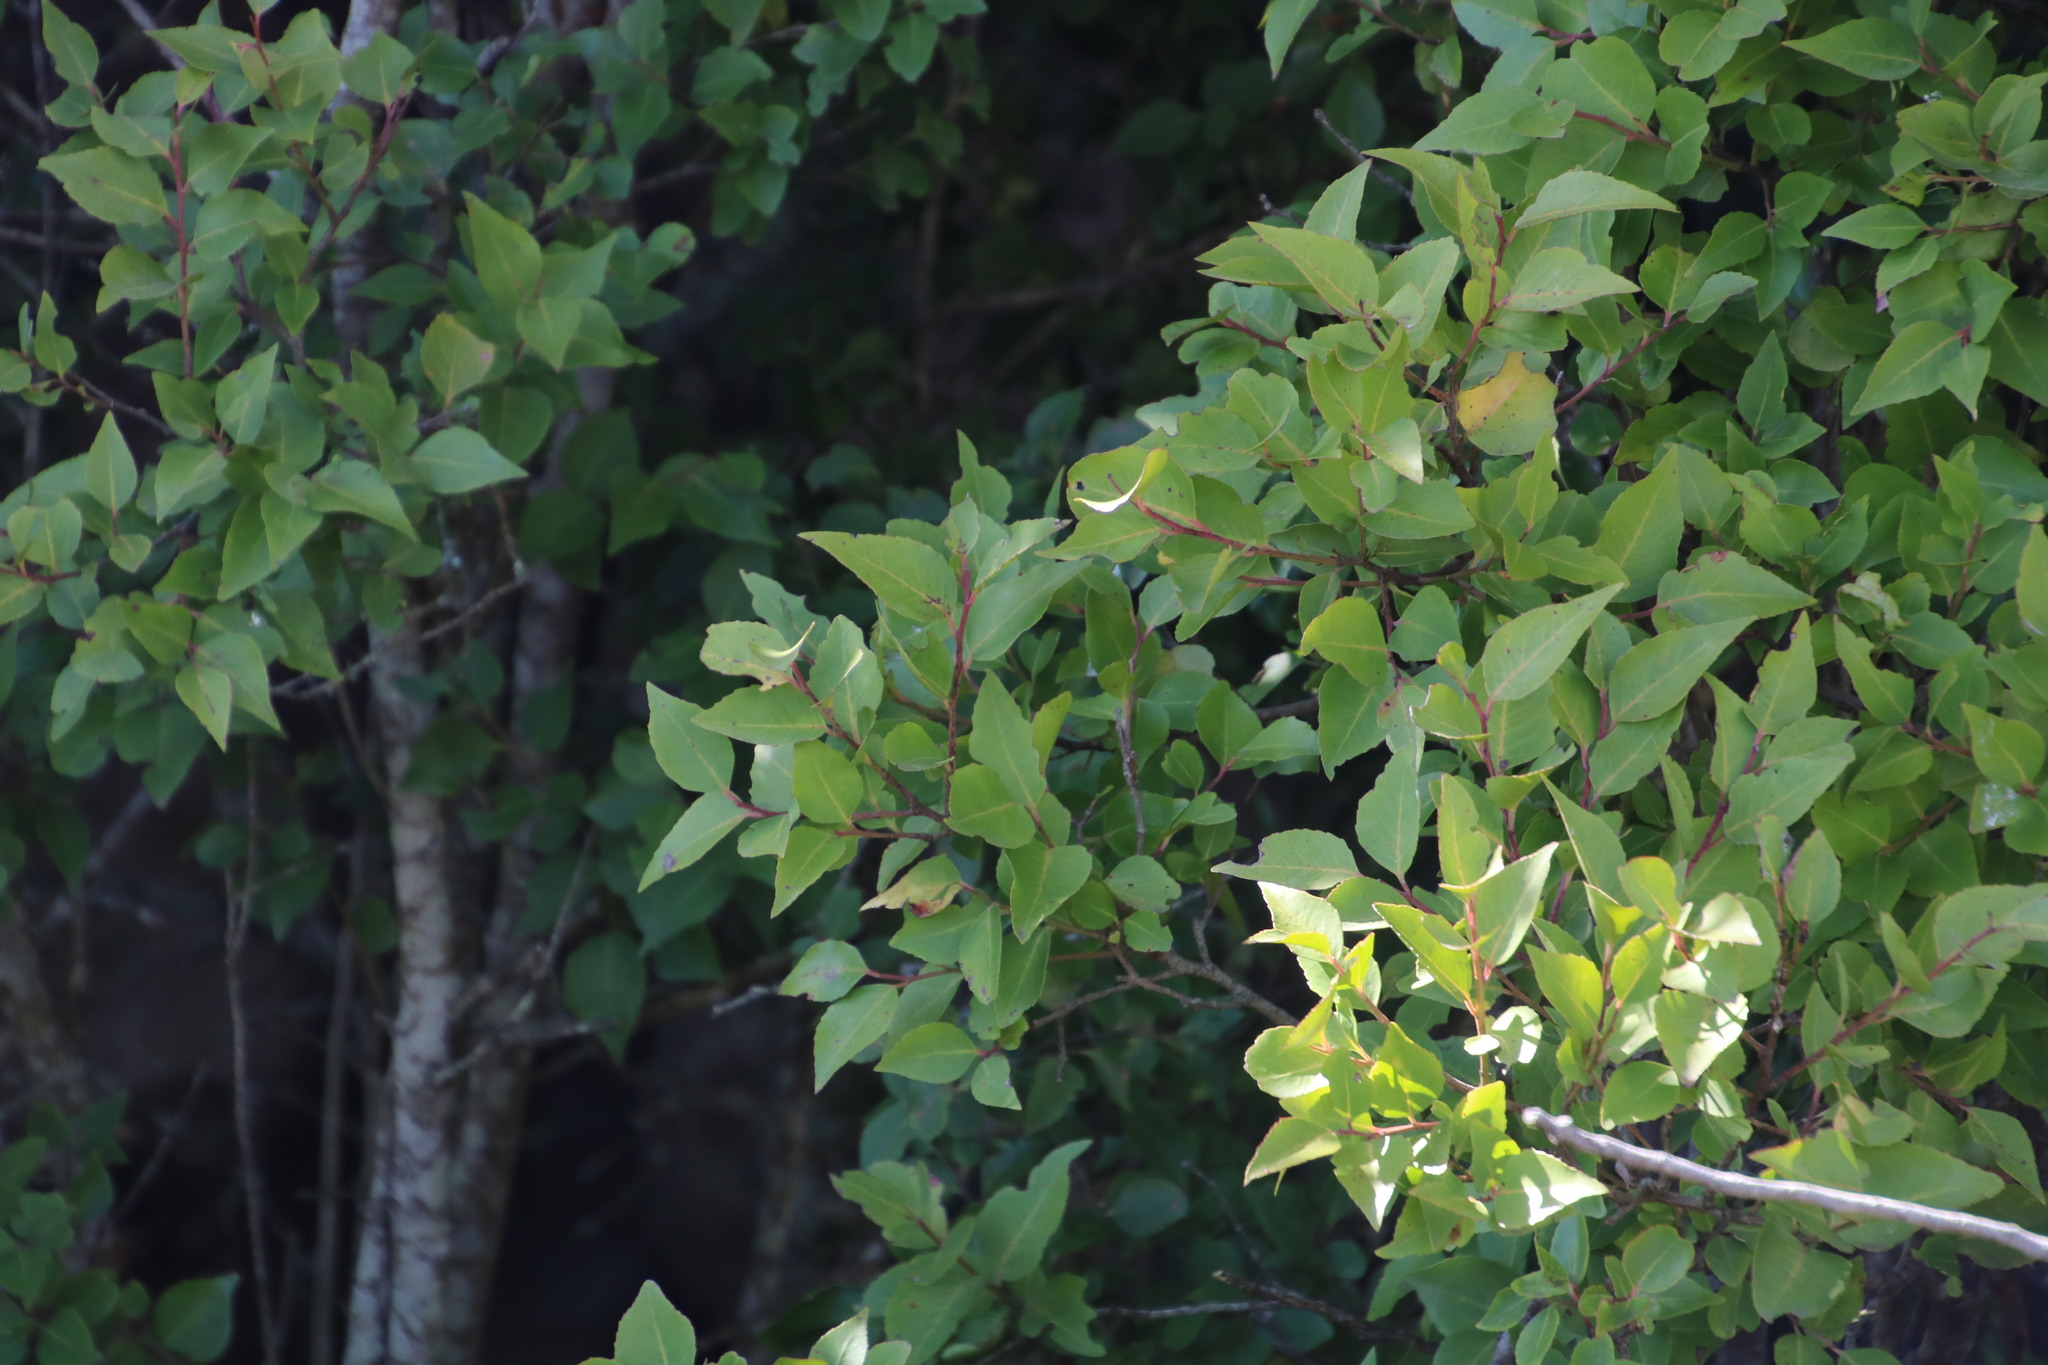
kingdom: Plantae
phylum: Tracheophyta
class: Magnoliopsida
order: Celastrales
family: Celastraceae
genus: Gymnosporia
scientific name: Gymnosporia acuminata
